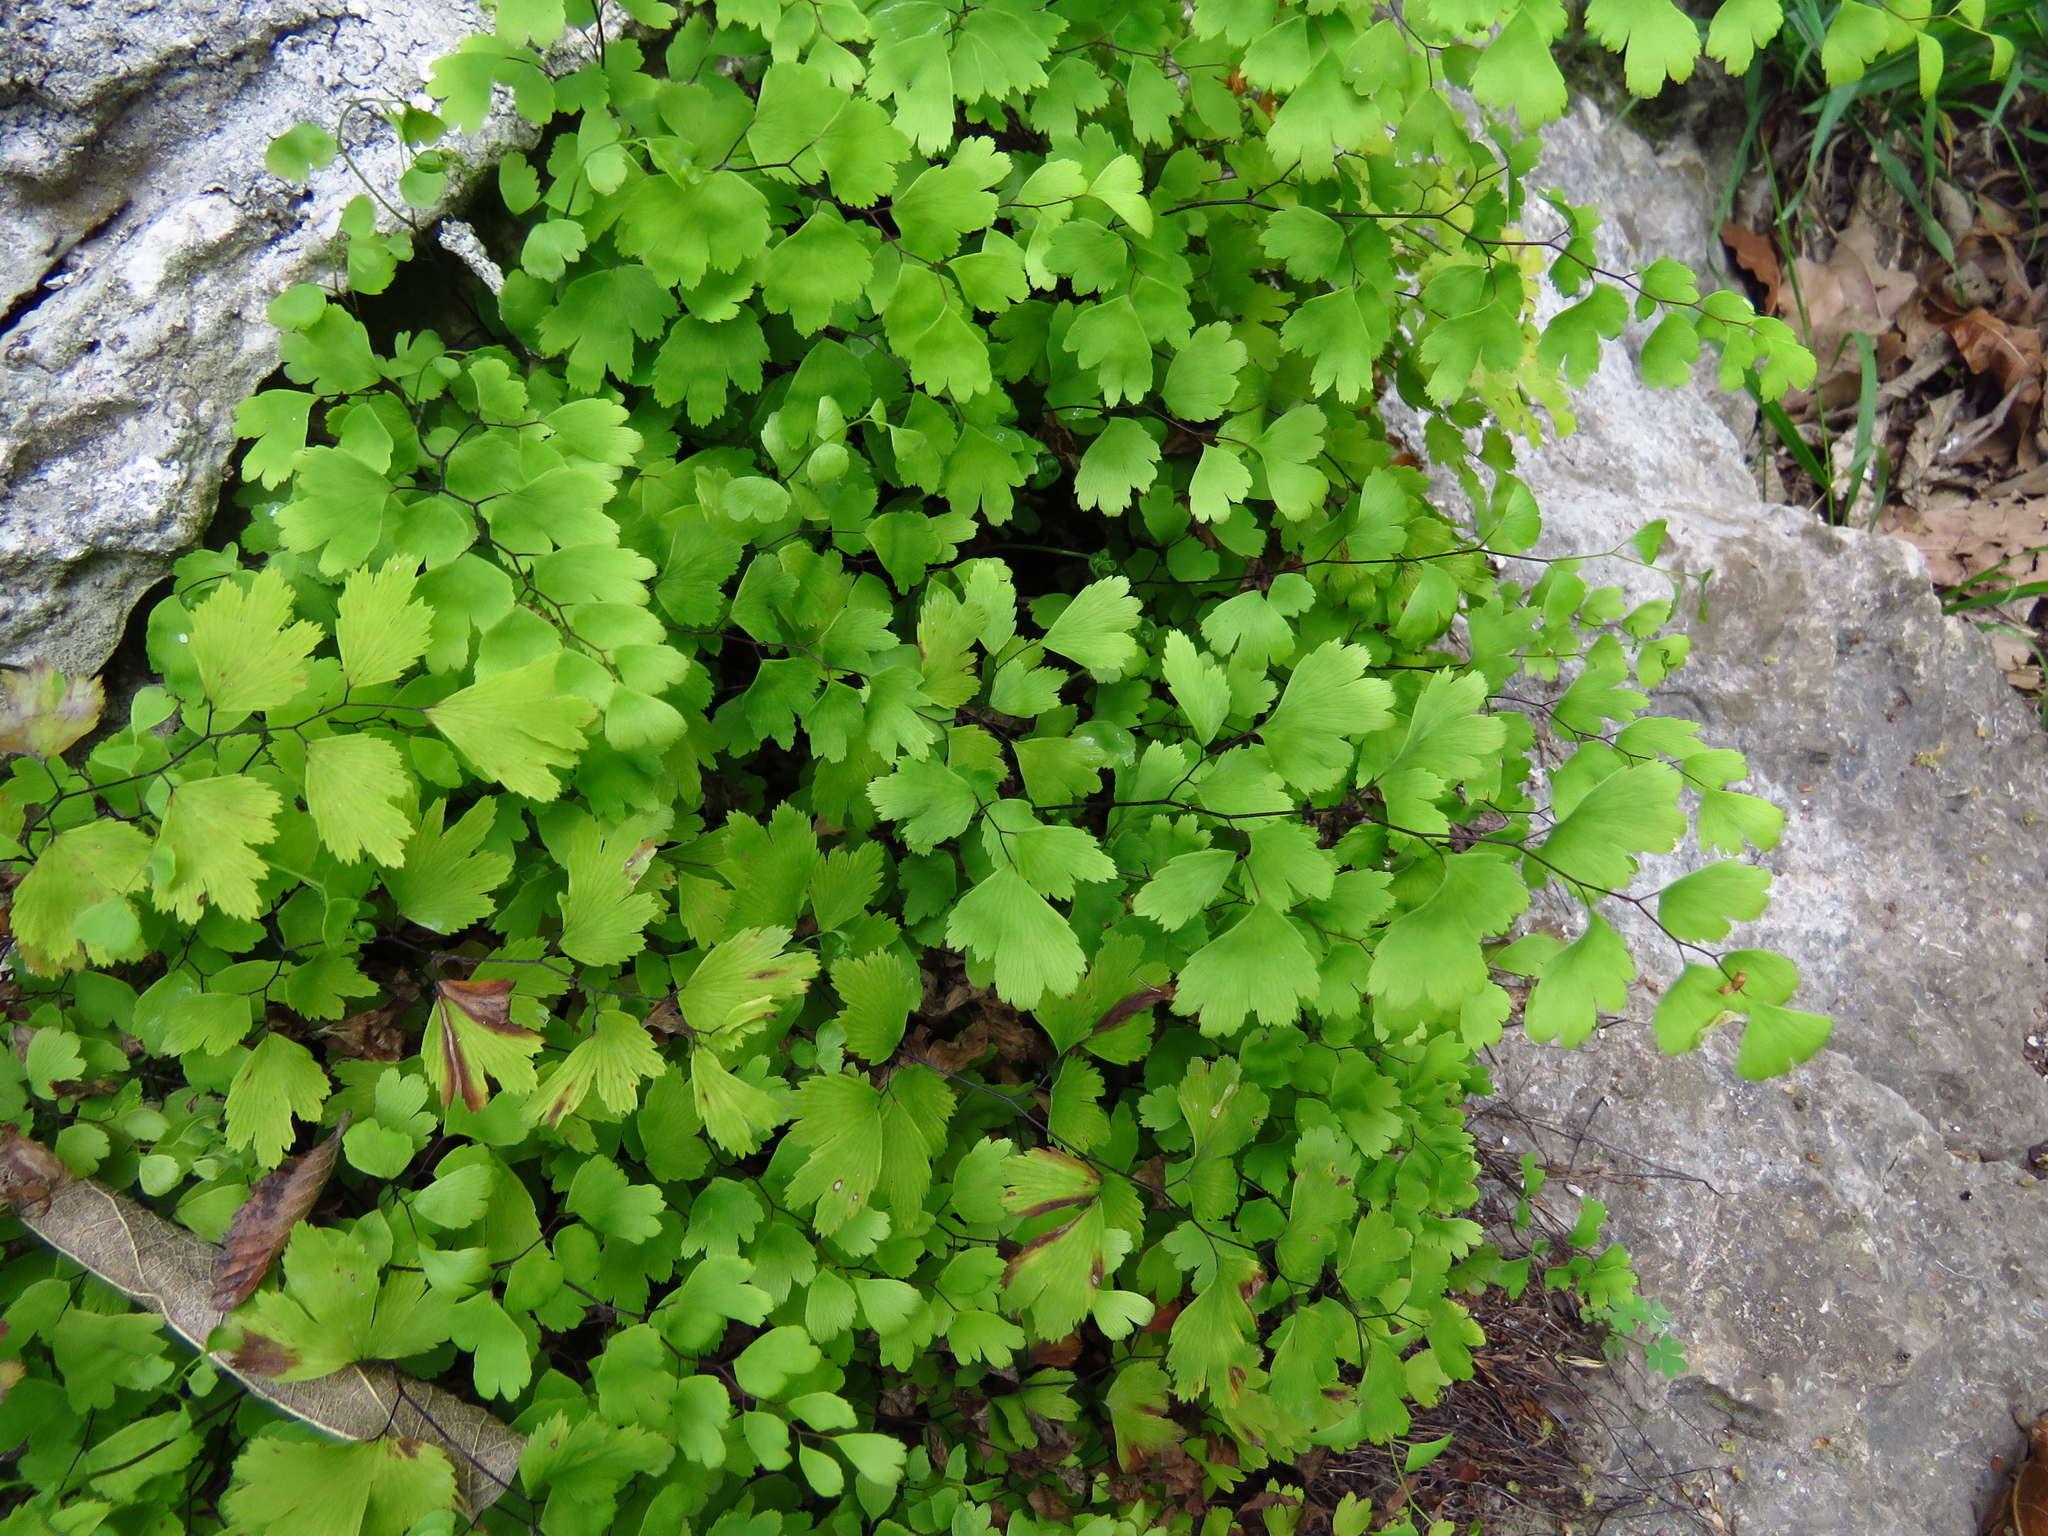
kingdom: Plantae
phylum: Tracheophyta
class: Polypodiopsida
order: Polypodiales
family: Pteridaceae
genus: Adiantum
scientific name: Adiantum capillus-veneris
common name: Maidenhair fern
